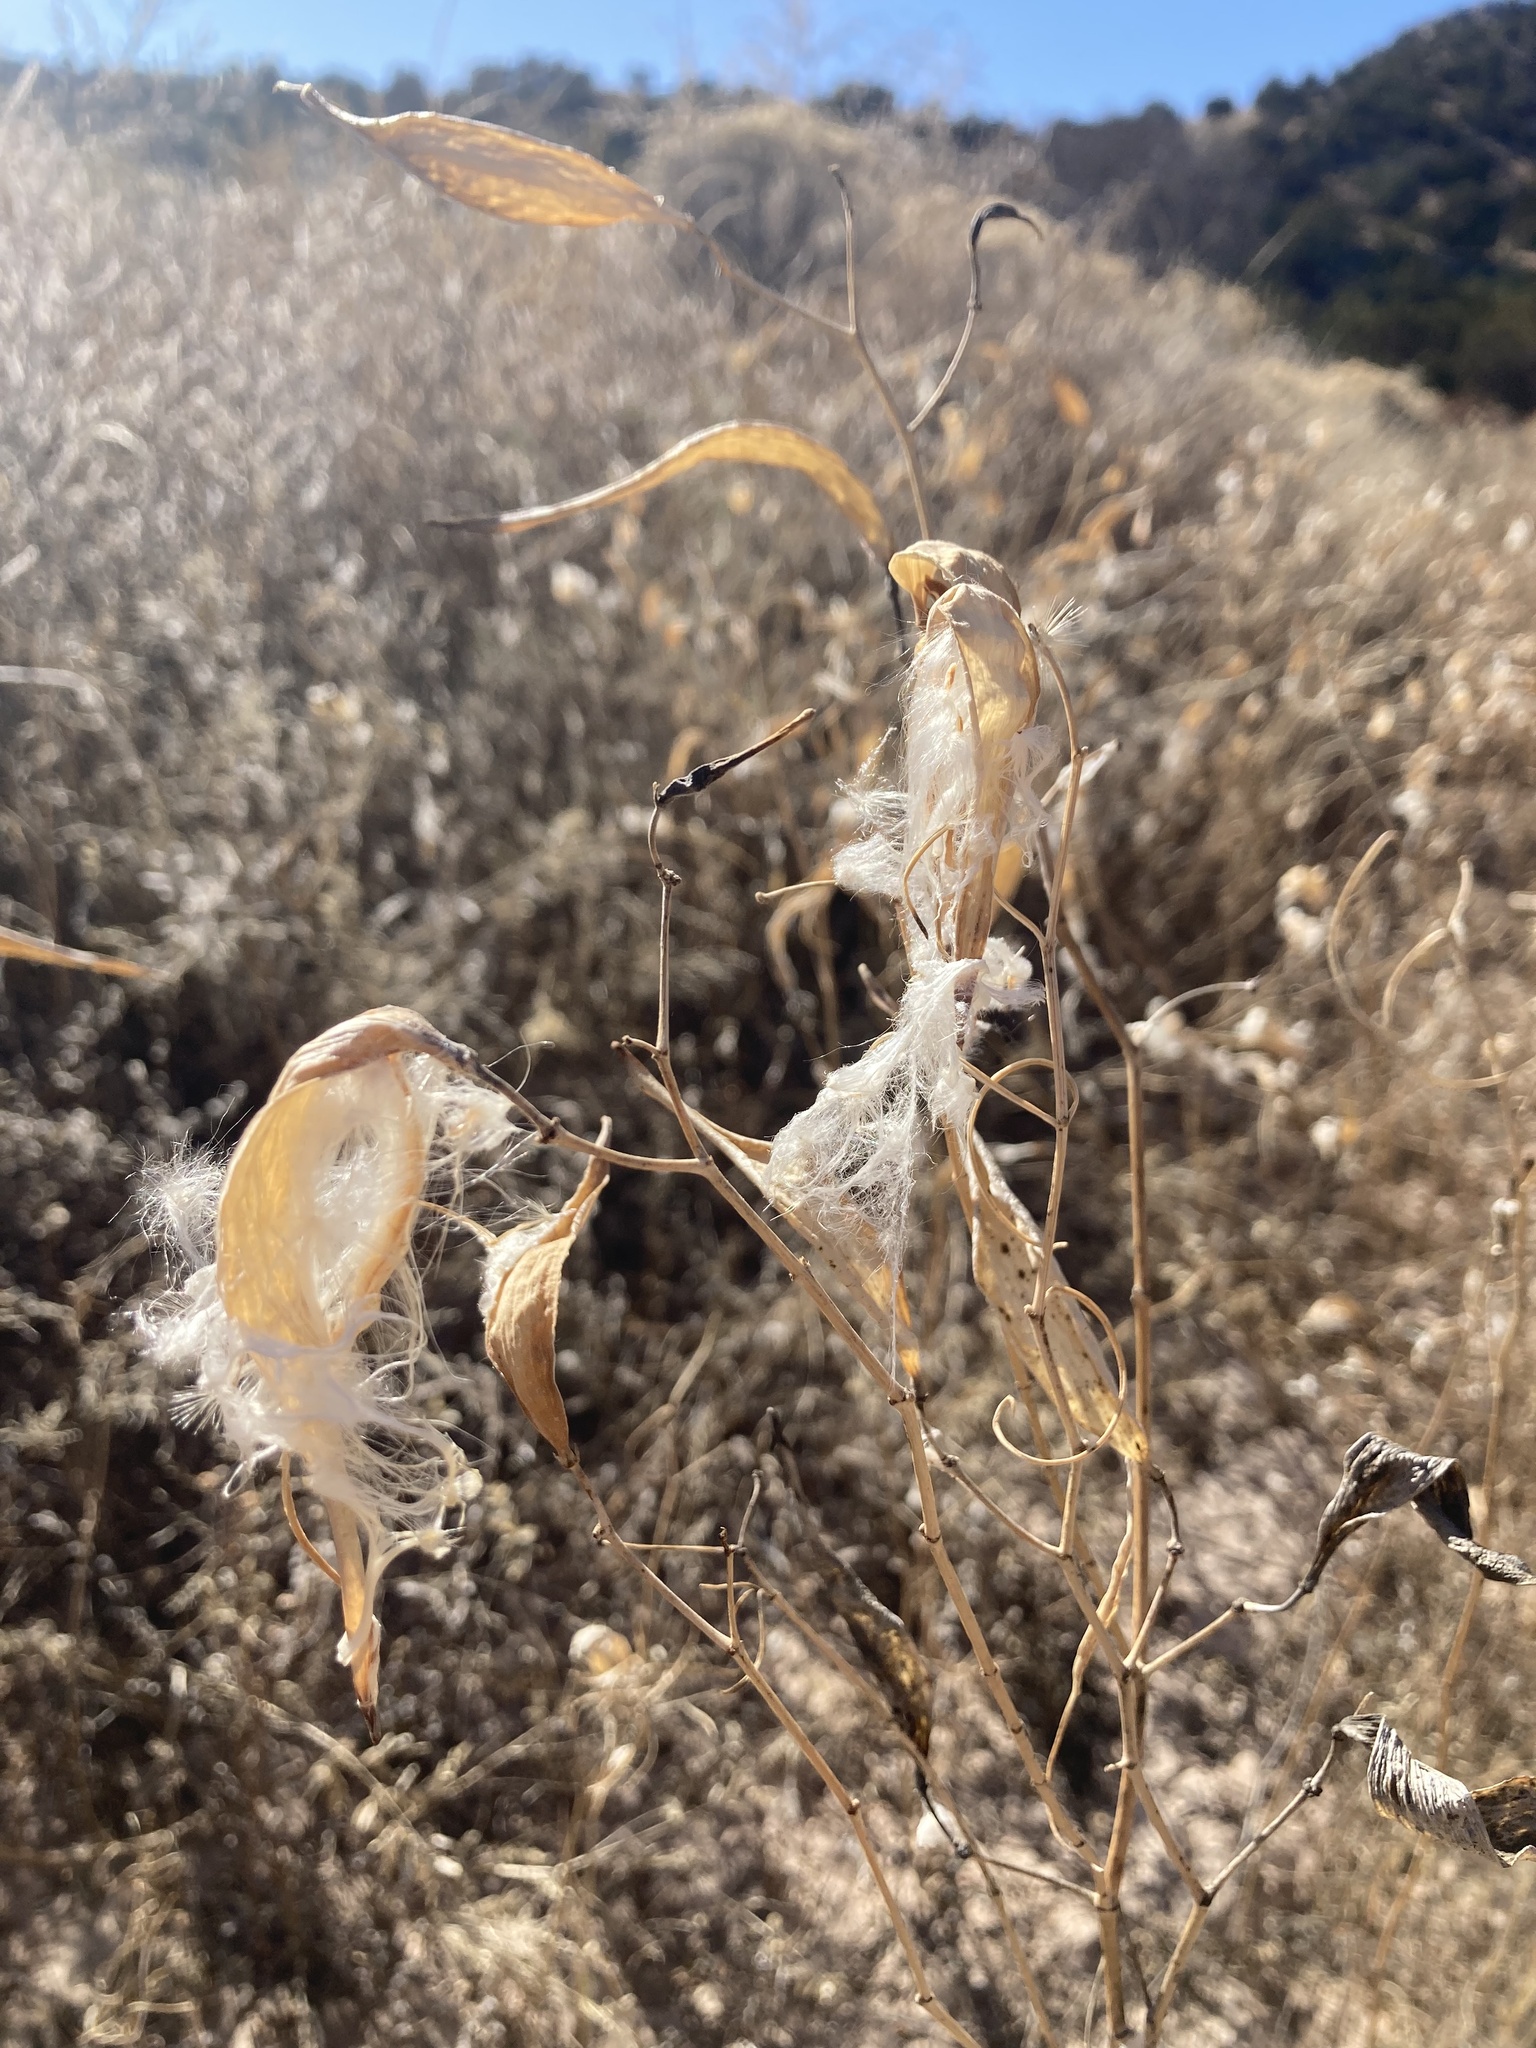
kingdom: Plantae
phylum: Tracheophyta
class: Magnoliopsida
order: Gentianales
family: Apocynaceae
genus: Asclepias
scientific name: Asclepias subverticillata
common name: Horsetail milkweed
